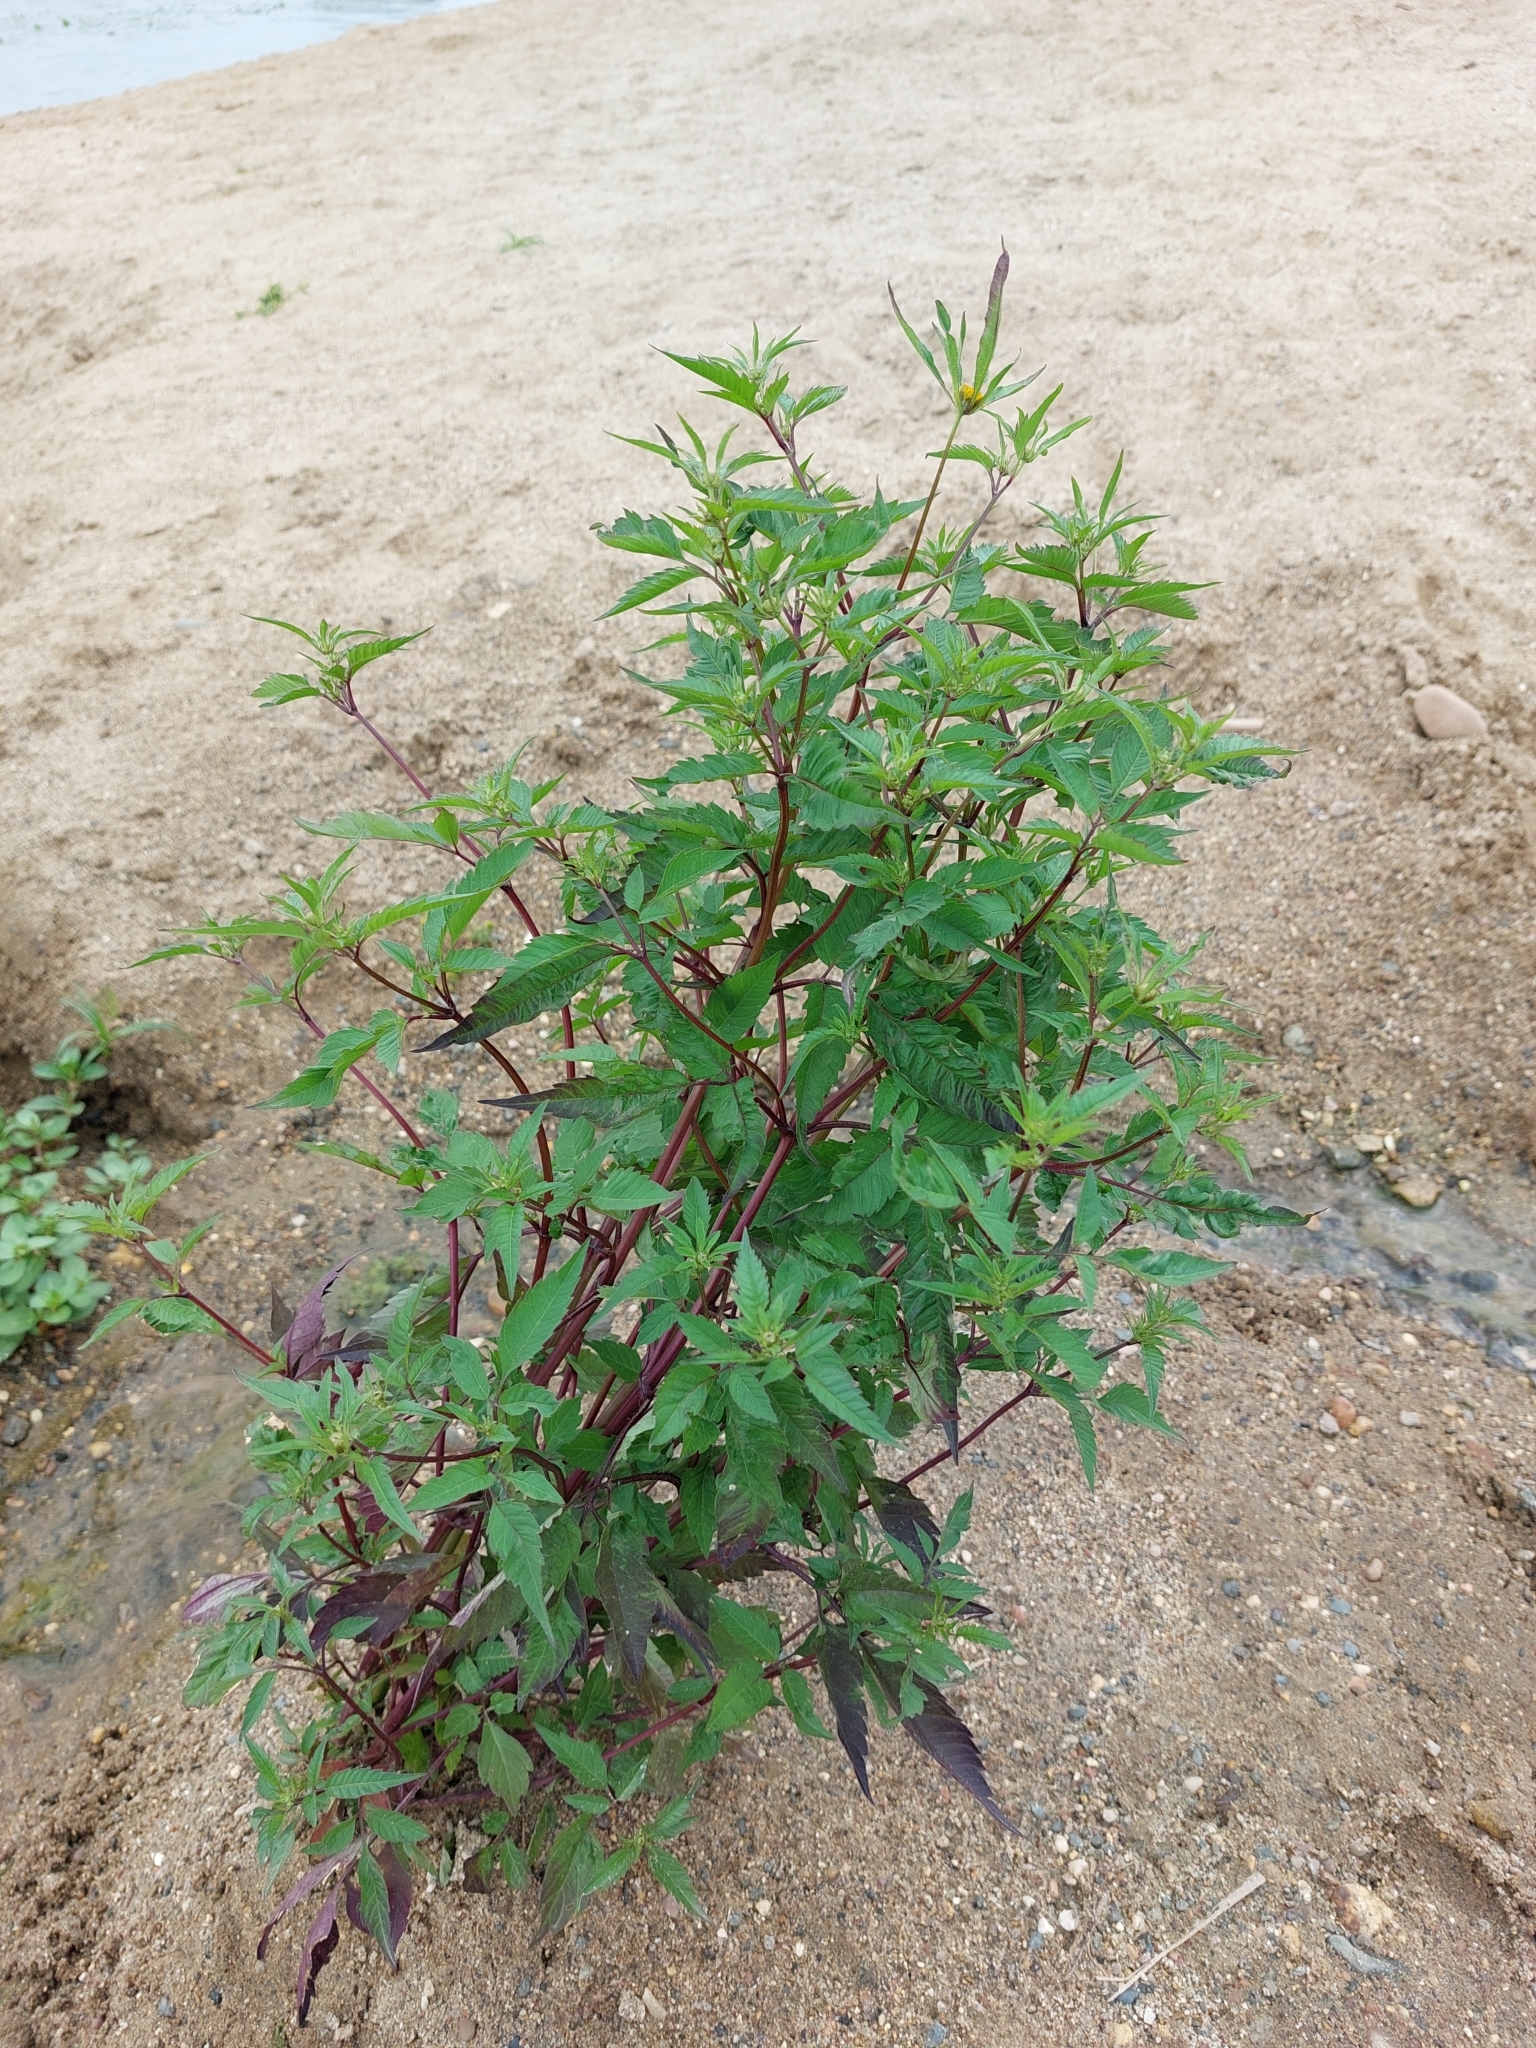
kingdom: Plantae
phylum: Tracheophyta
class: Magnoliopsida
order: Asterales
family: Asteraceae
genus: Bidens
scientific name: Bidens frondosa
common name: Beggarticks
